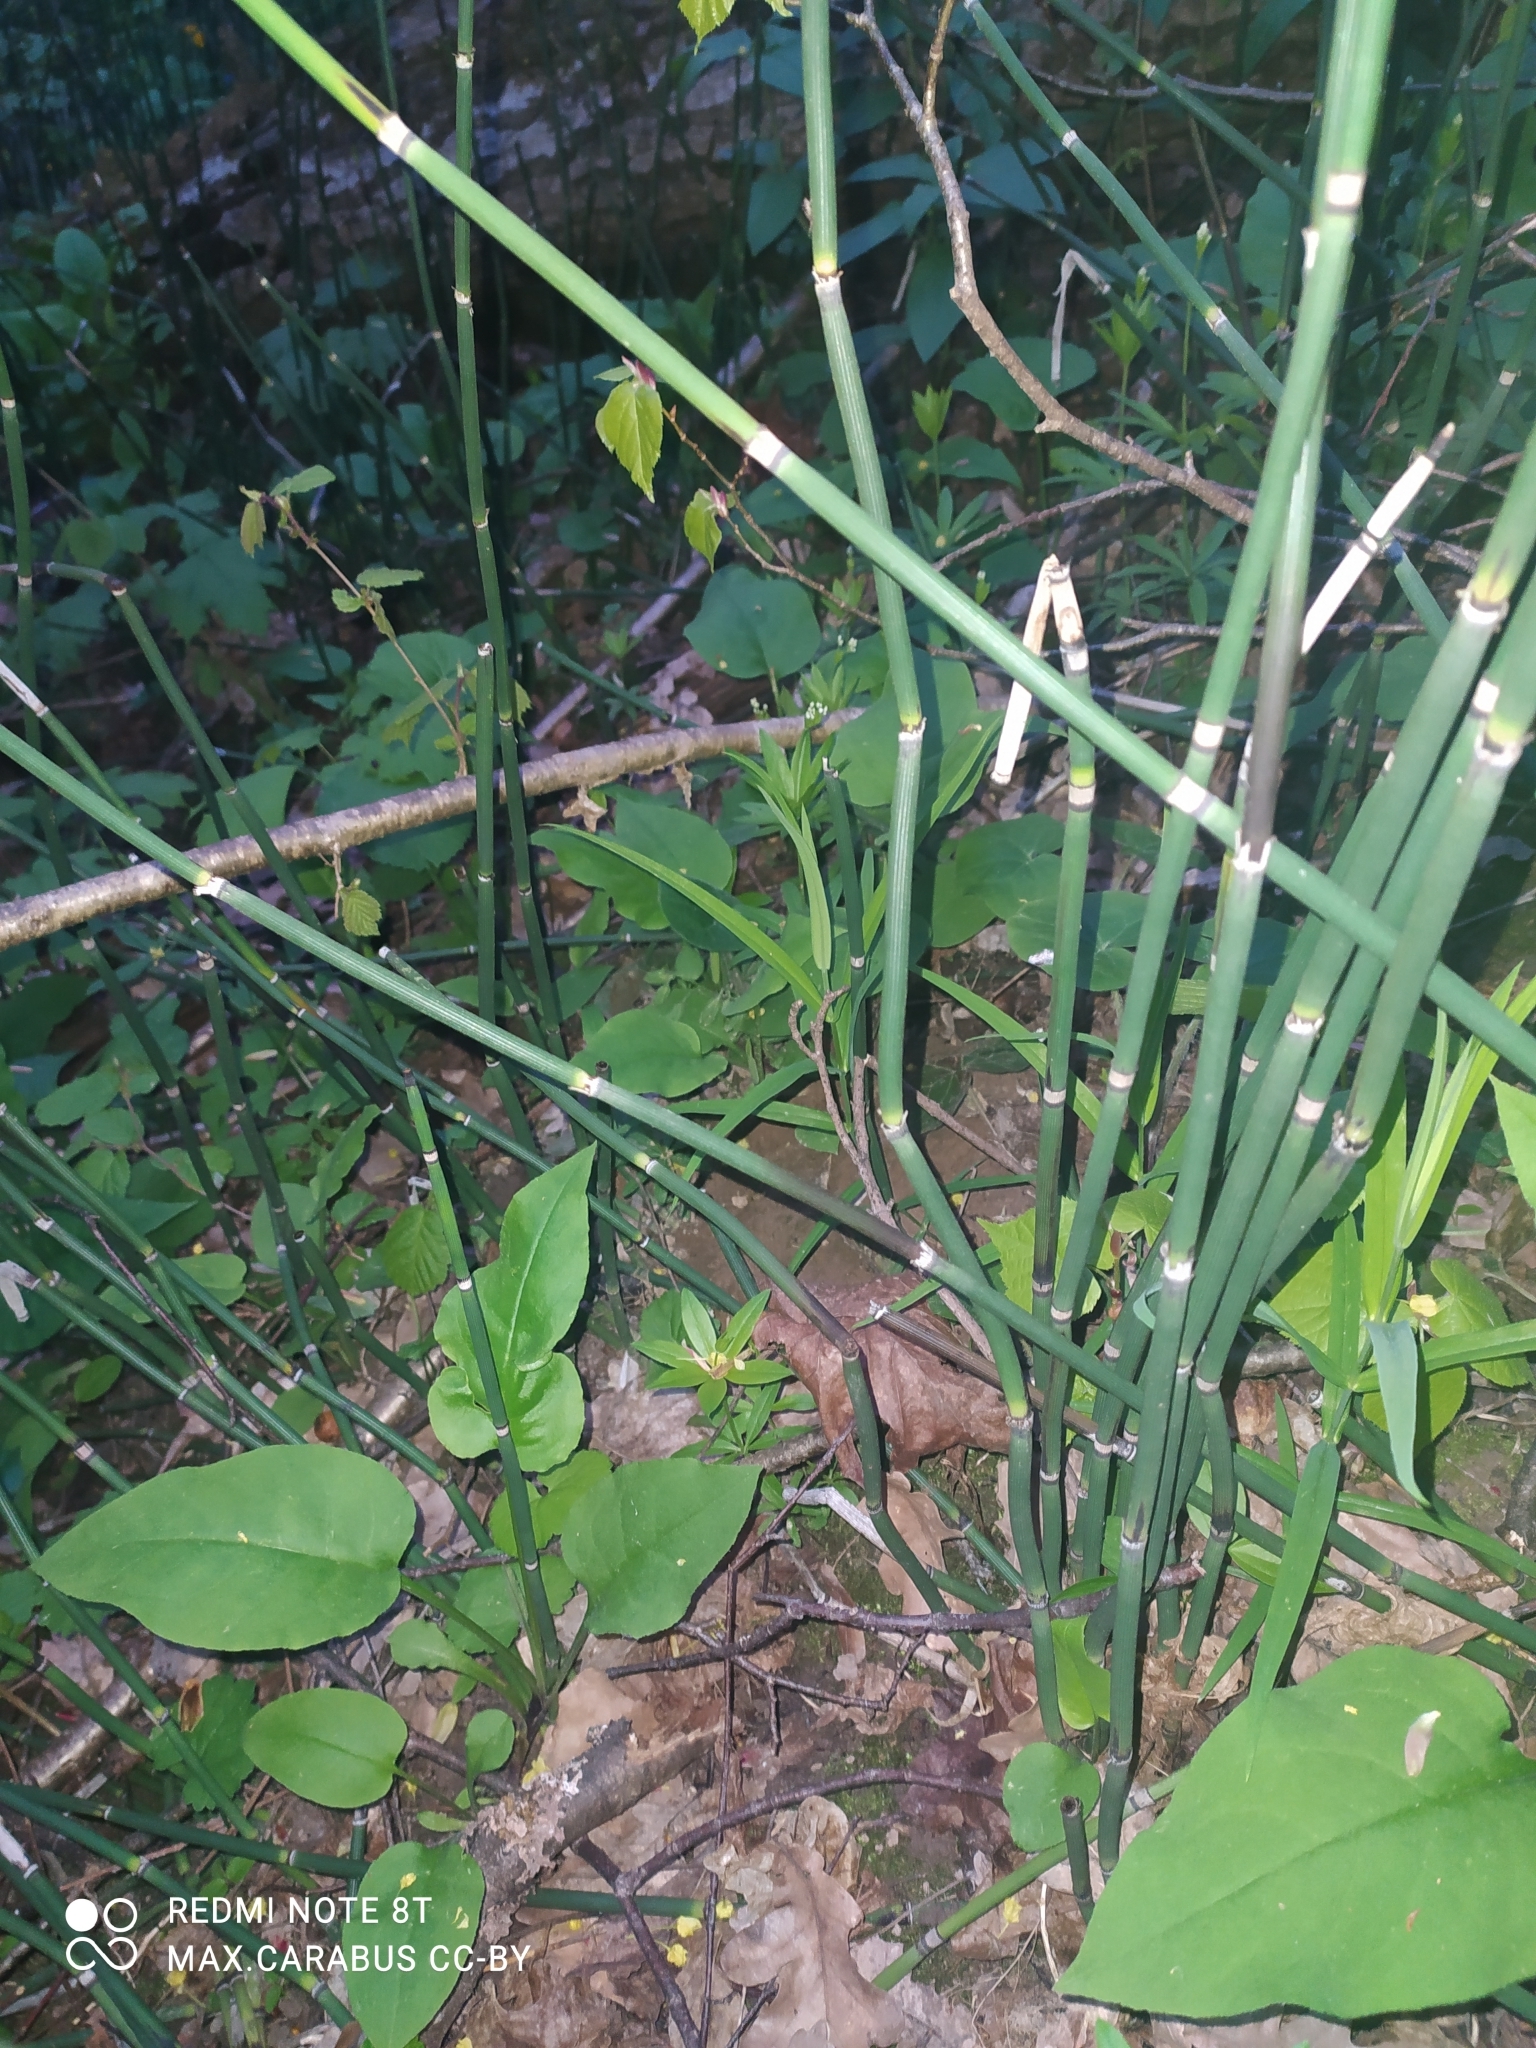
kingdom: Plantae
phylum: Tracheophyta
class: Polypodiopsida
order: Equisetales
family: Equisetaceae
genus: Equisetum
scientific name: Equisetum hyemale
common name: Rough horsetail
